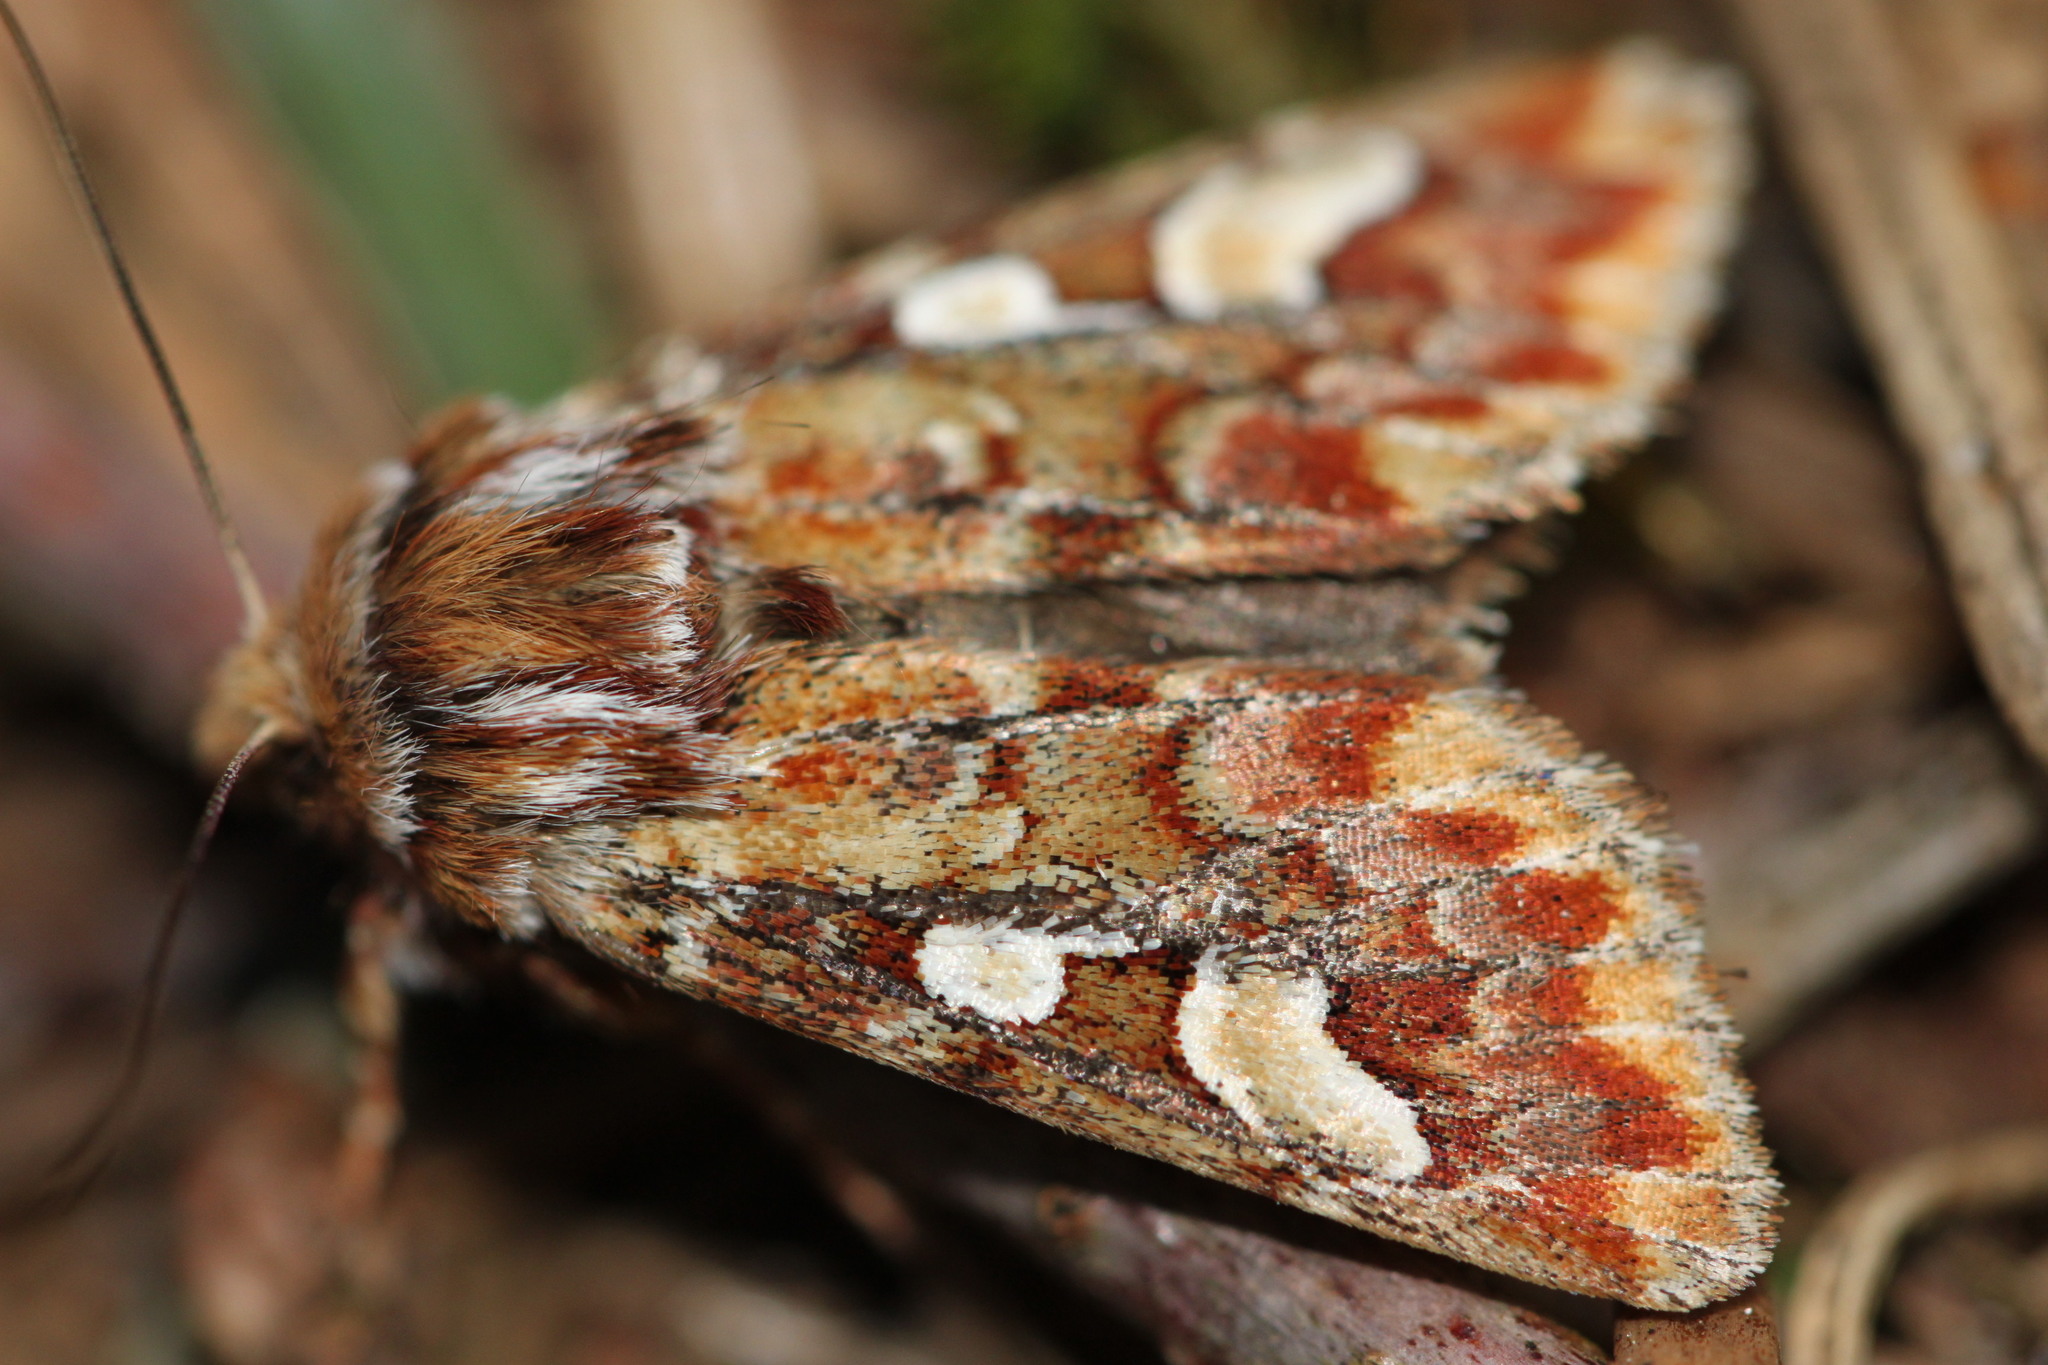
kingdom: Animalia
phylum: Arthropoda
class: Insecta
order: Lepidoptera
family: Noctuidae
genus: Panolis
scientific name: Panolis flammea
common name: Pine beauty
